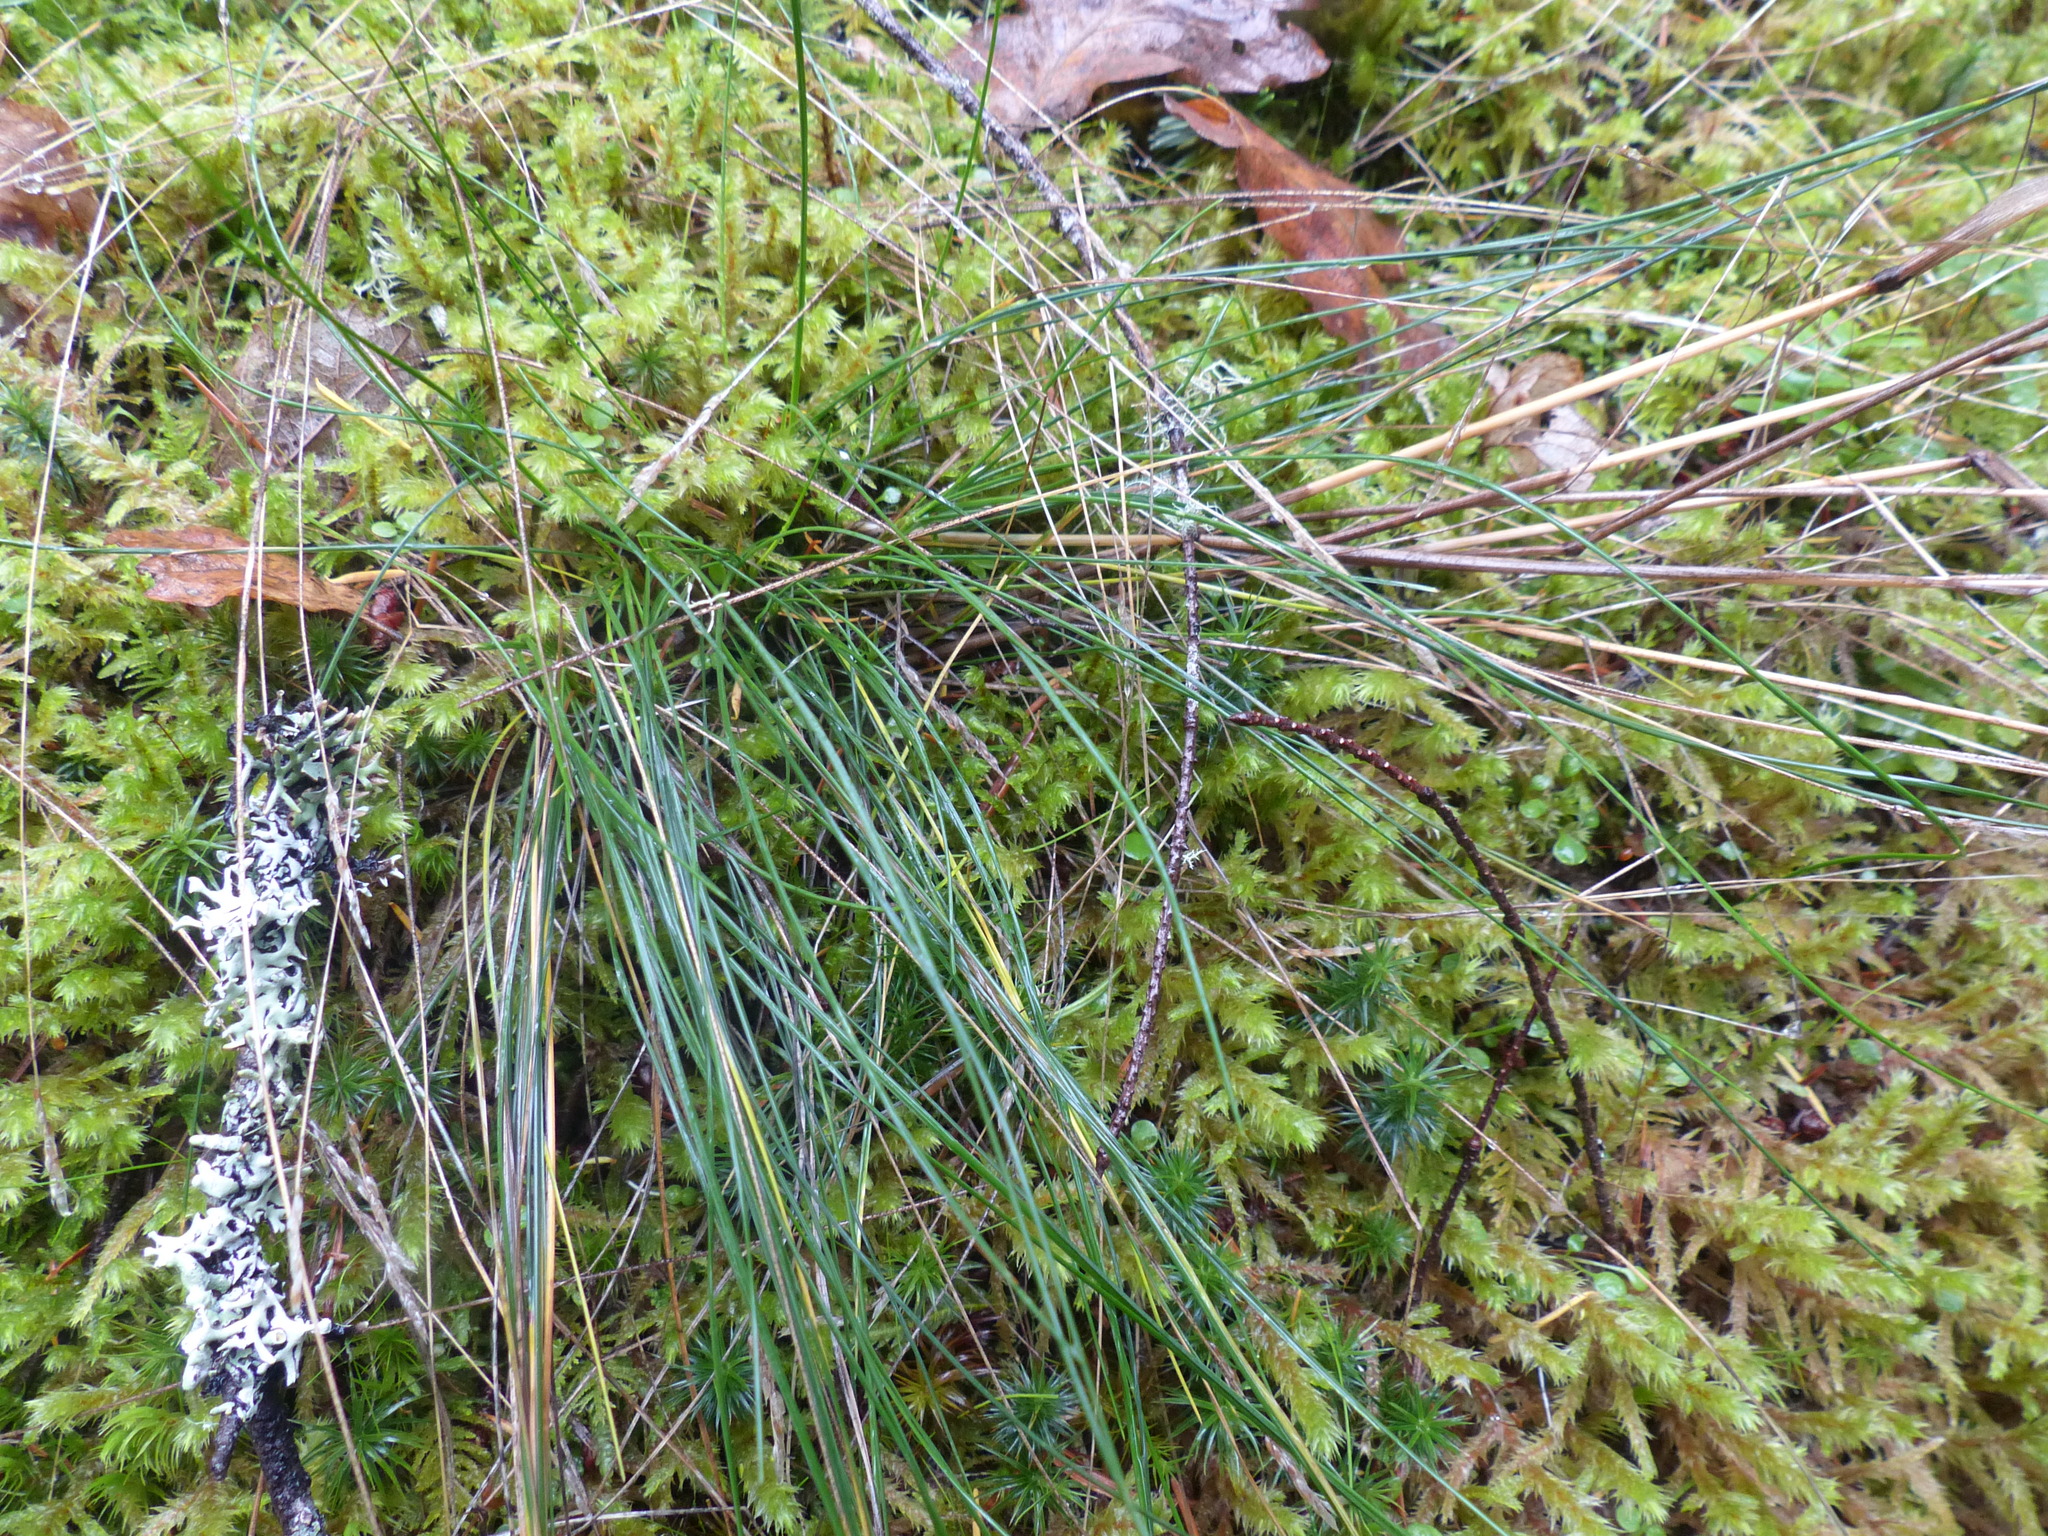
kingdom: Plantae
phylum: Tracheophyta
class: Liliopsida
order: Poales
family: Poaceae
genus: Festuca
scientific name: Festuca occidentalis
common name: Western fescue
